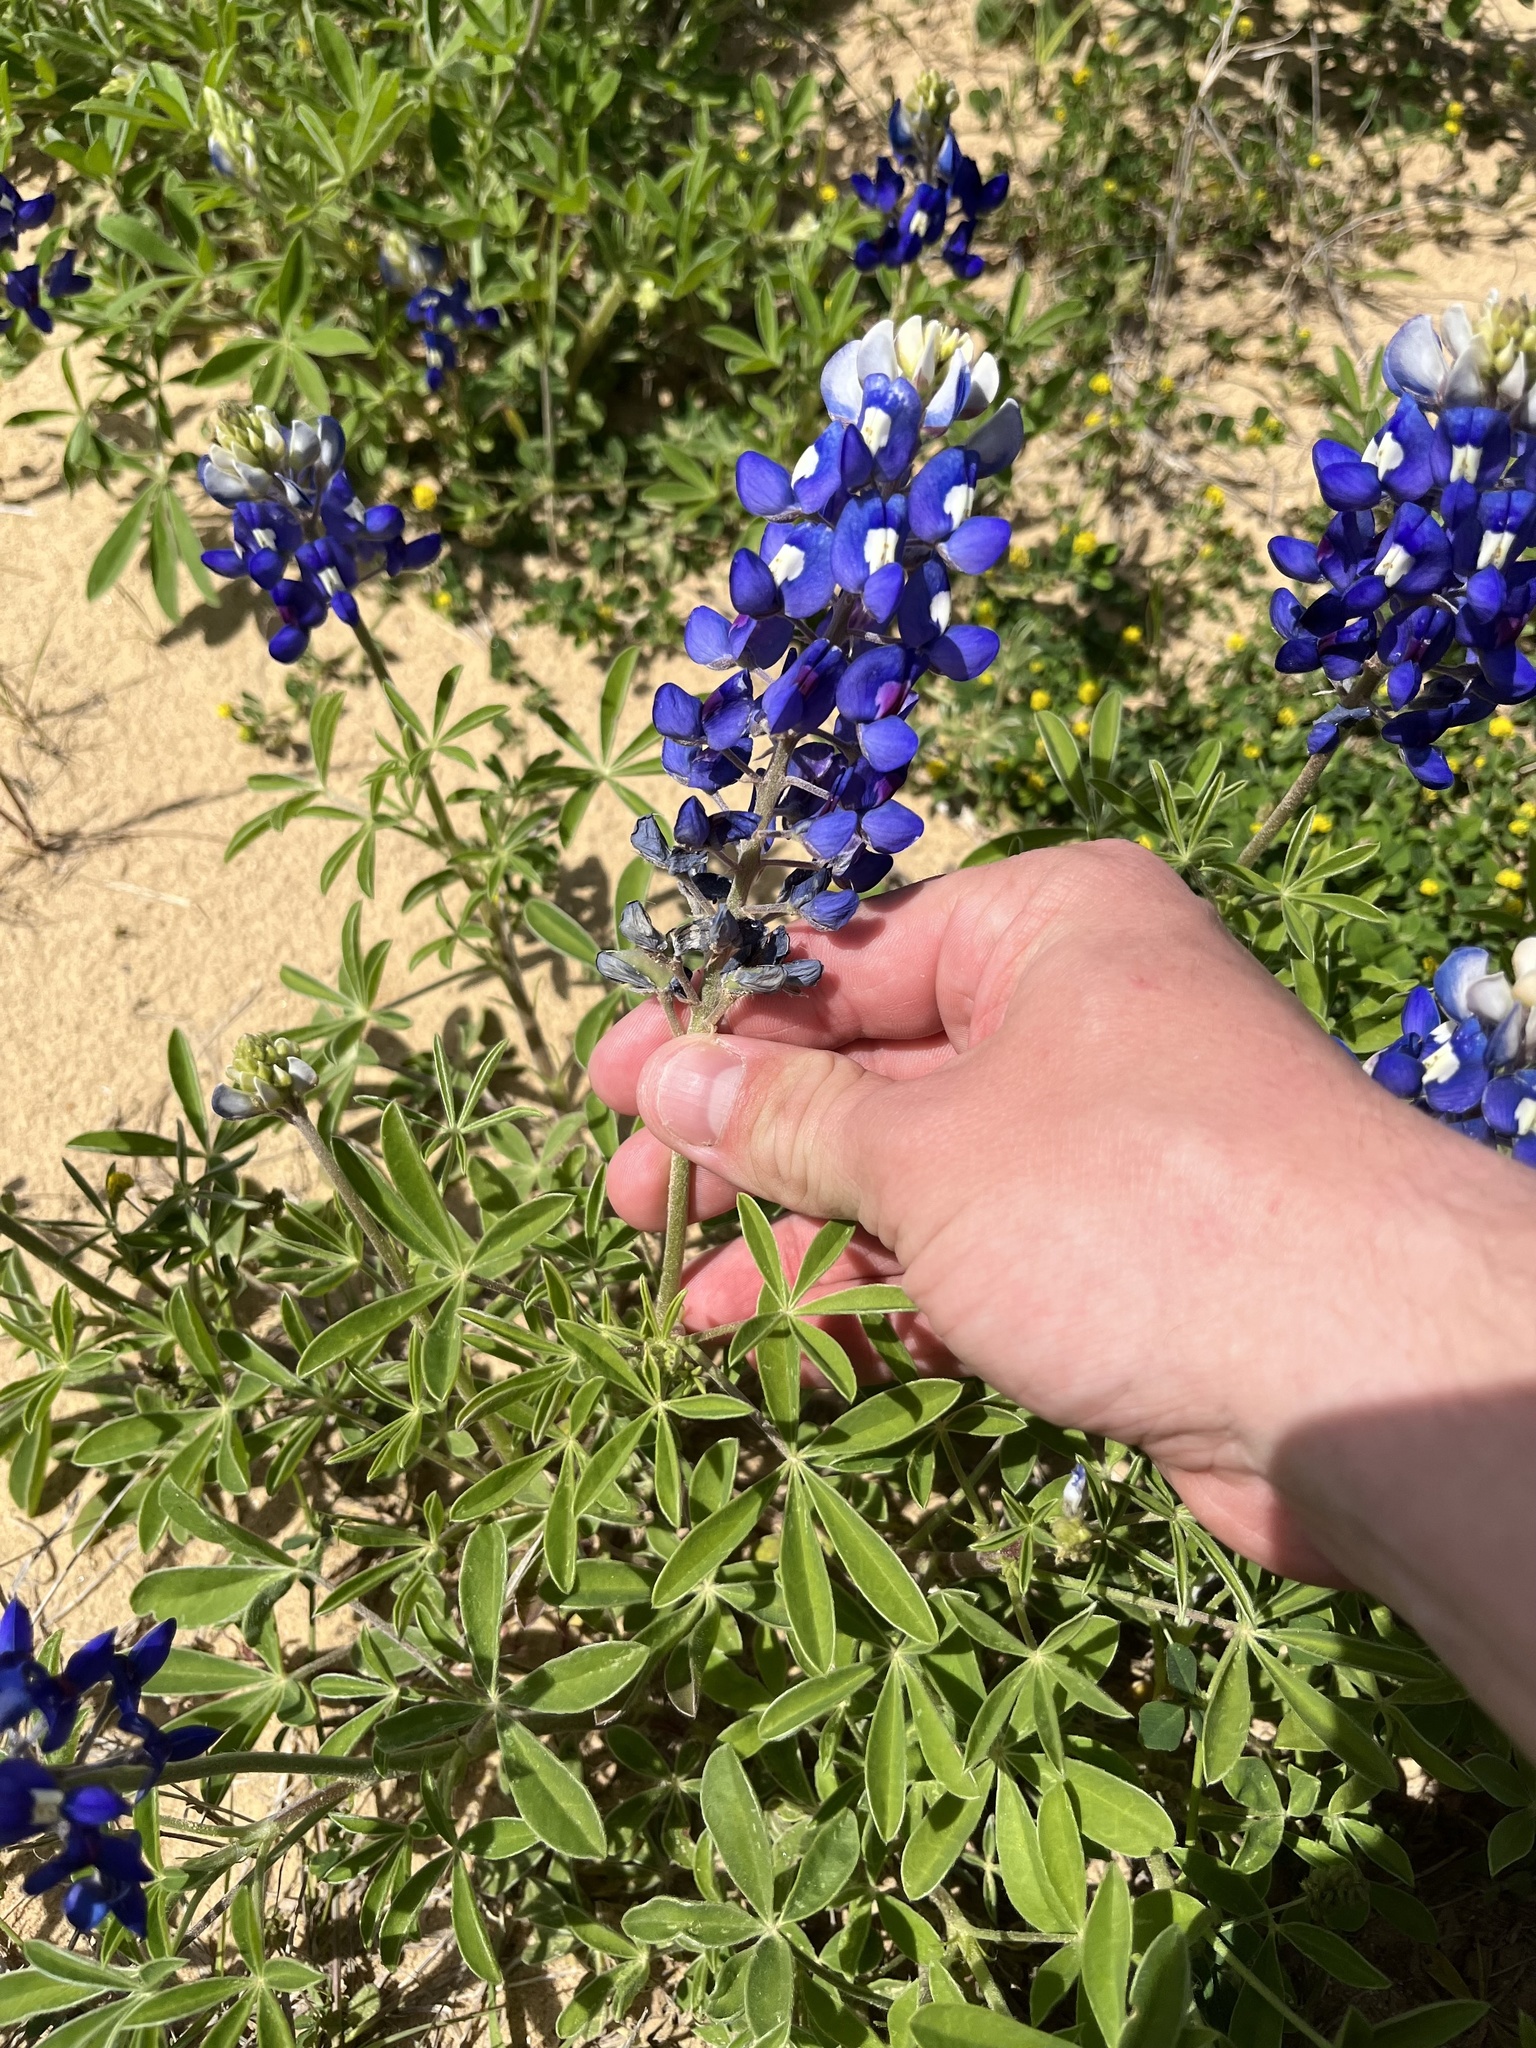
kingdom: Plantae
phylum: Tracheophyta
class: Magnoliopsida
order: Fabales
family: Fabaceae
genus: Lupinus
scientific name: Lupinus texensis
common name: Texas bluebonnet
